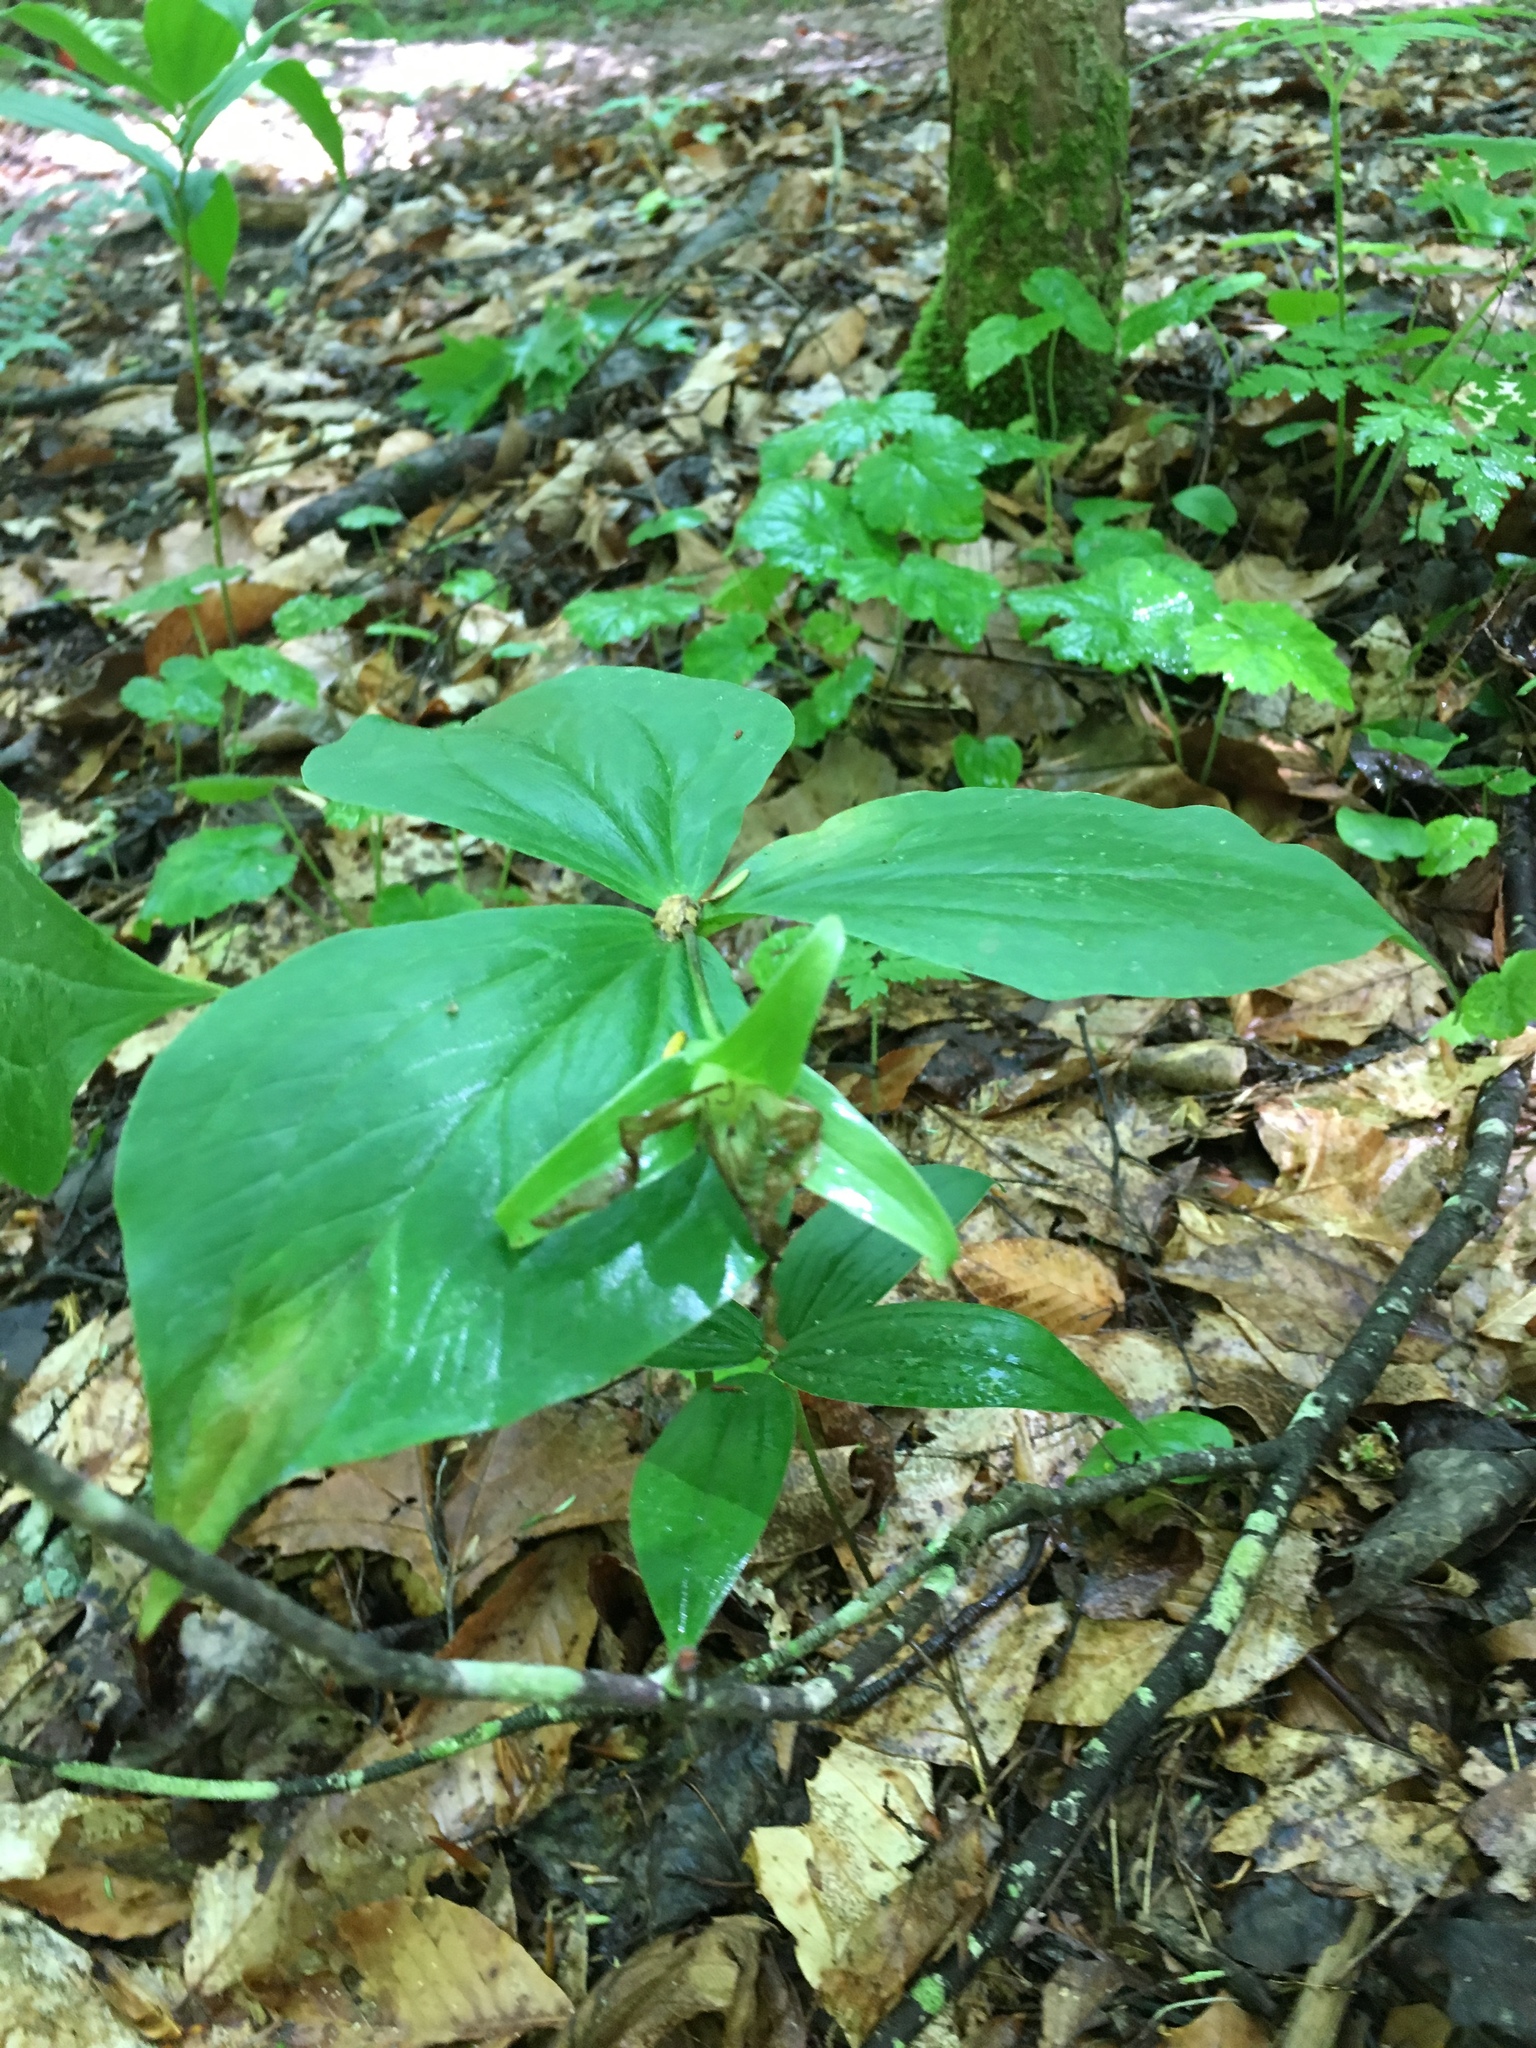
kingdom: Plantae
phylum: Tracheophyta
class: Liliopsida
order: Liliales
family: Melanthiaceae
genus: Trillium
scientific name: Trillium grandiflorum
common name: Great white trillium
